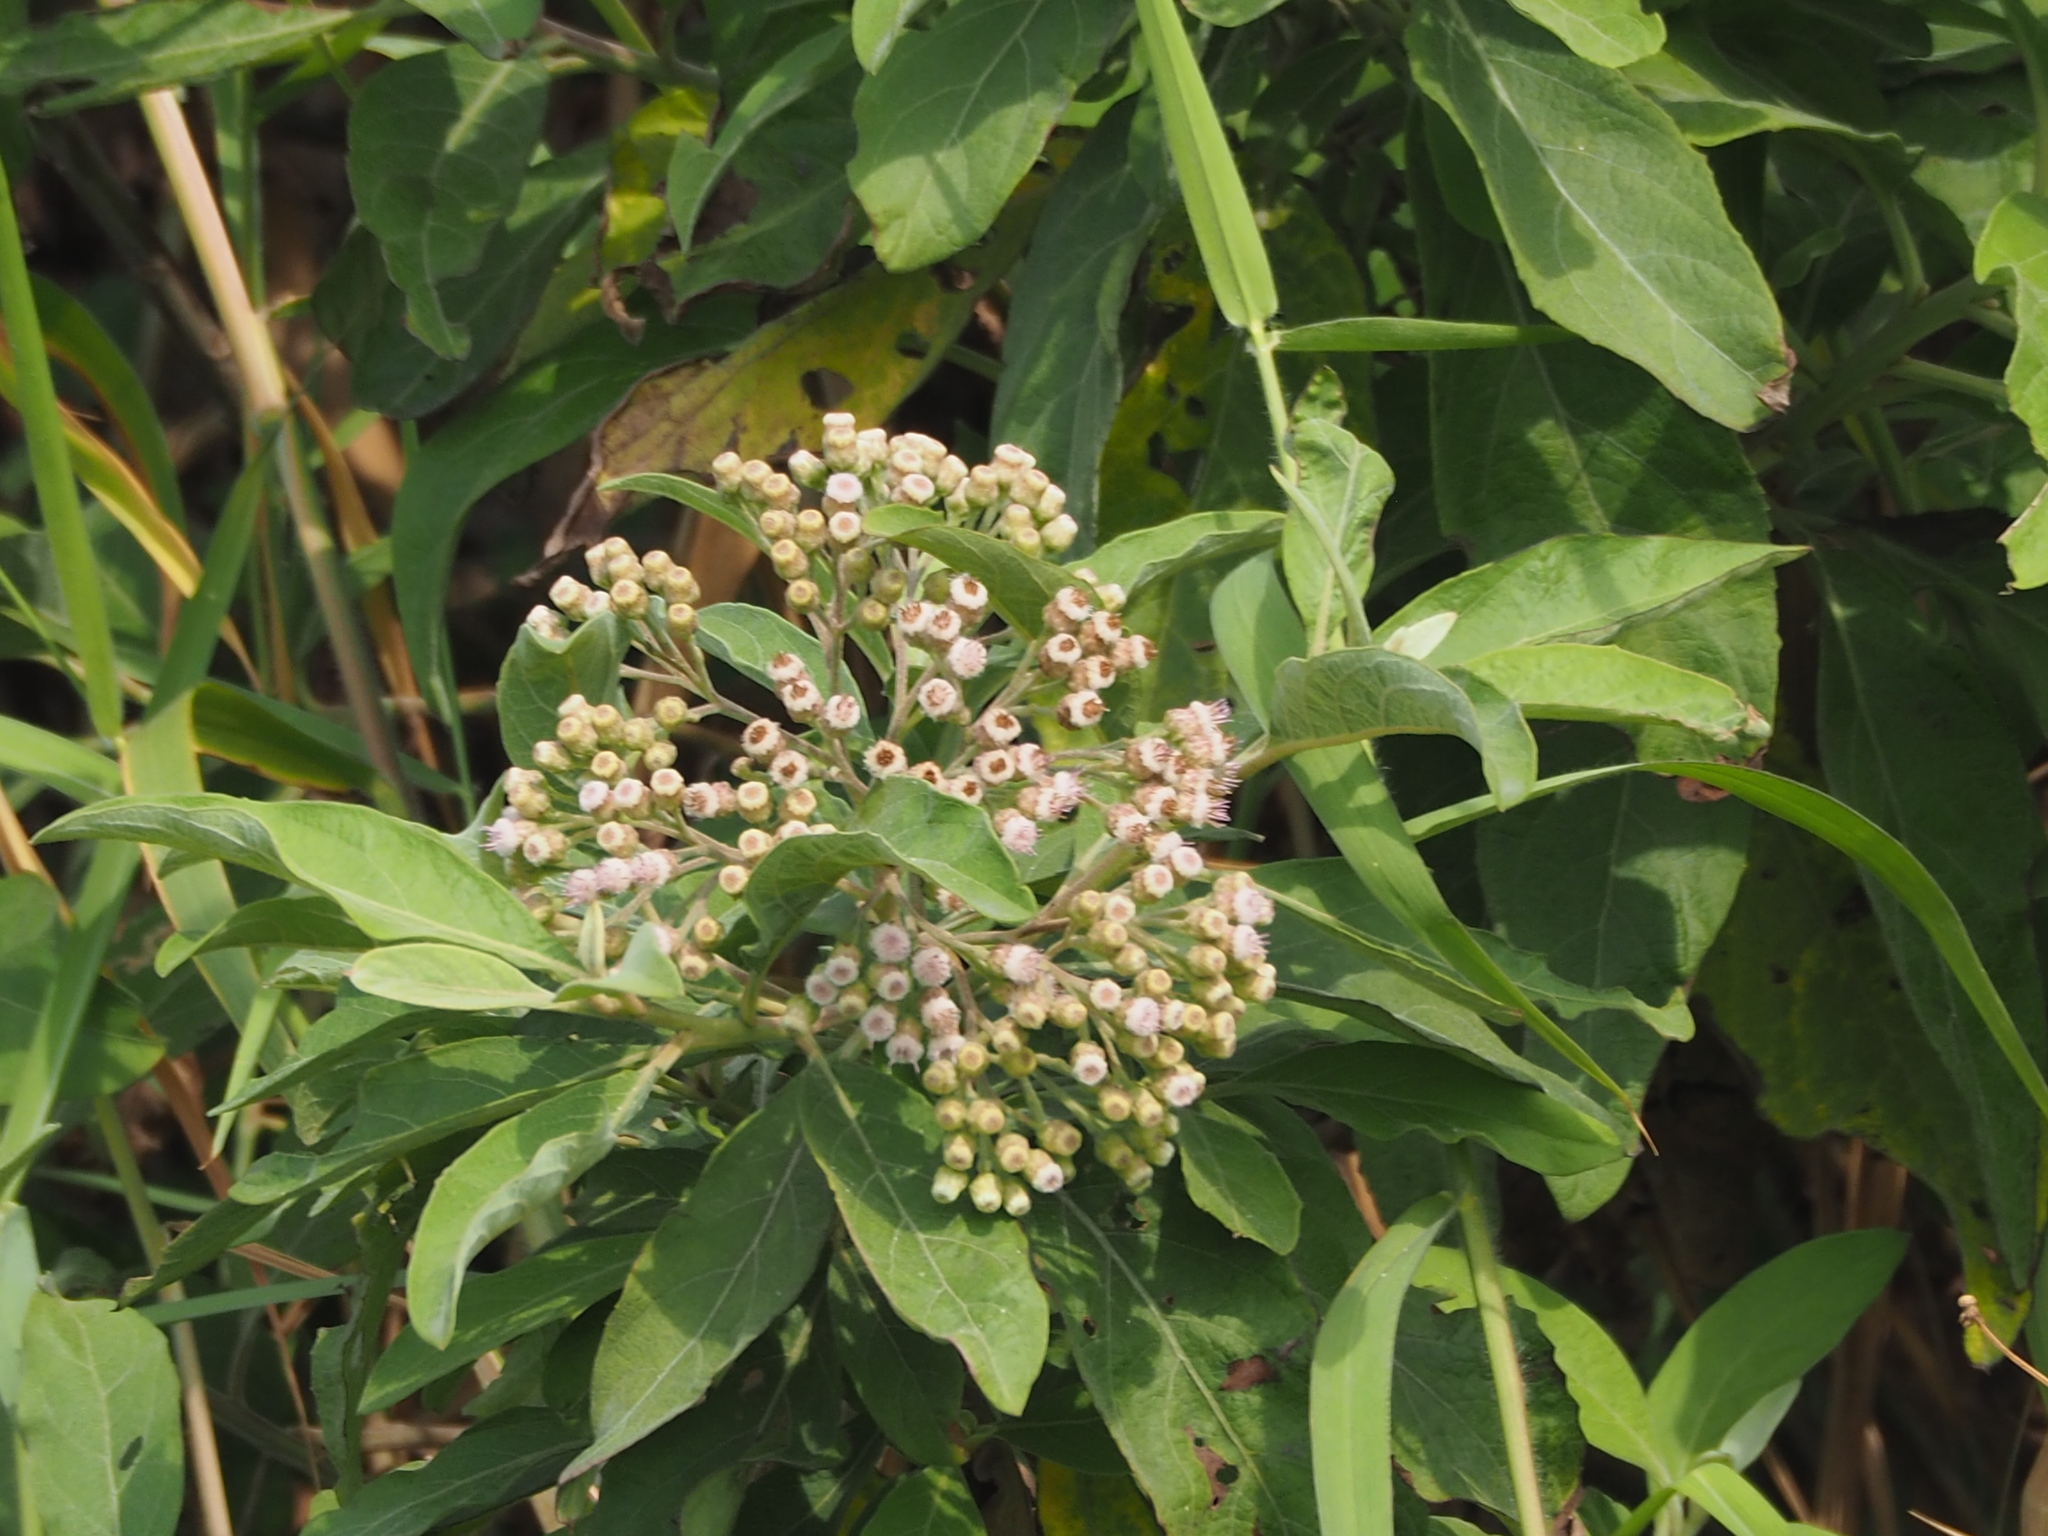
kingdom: Plantae
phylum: Tracheophyta
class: Magnoliopsida
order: Asterales
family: Asteraceae
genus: Pluchea
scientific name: Pluchea carolinensis
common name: Marsh fleabane
